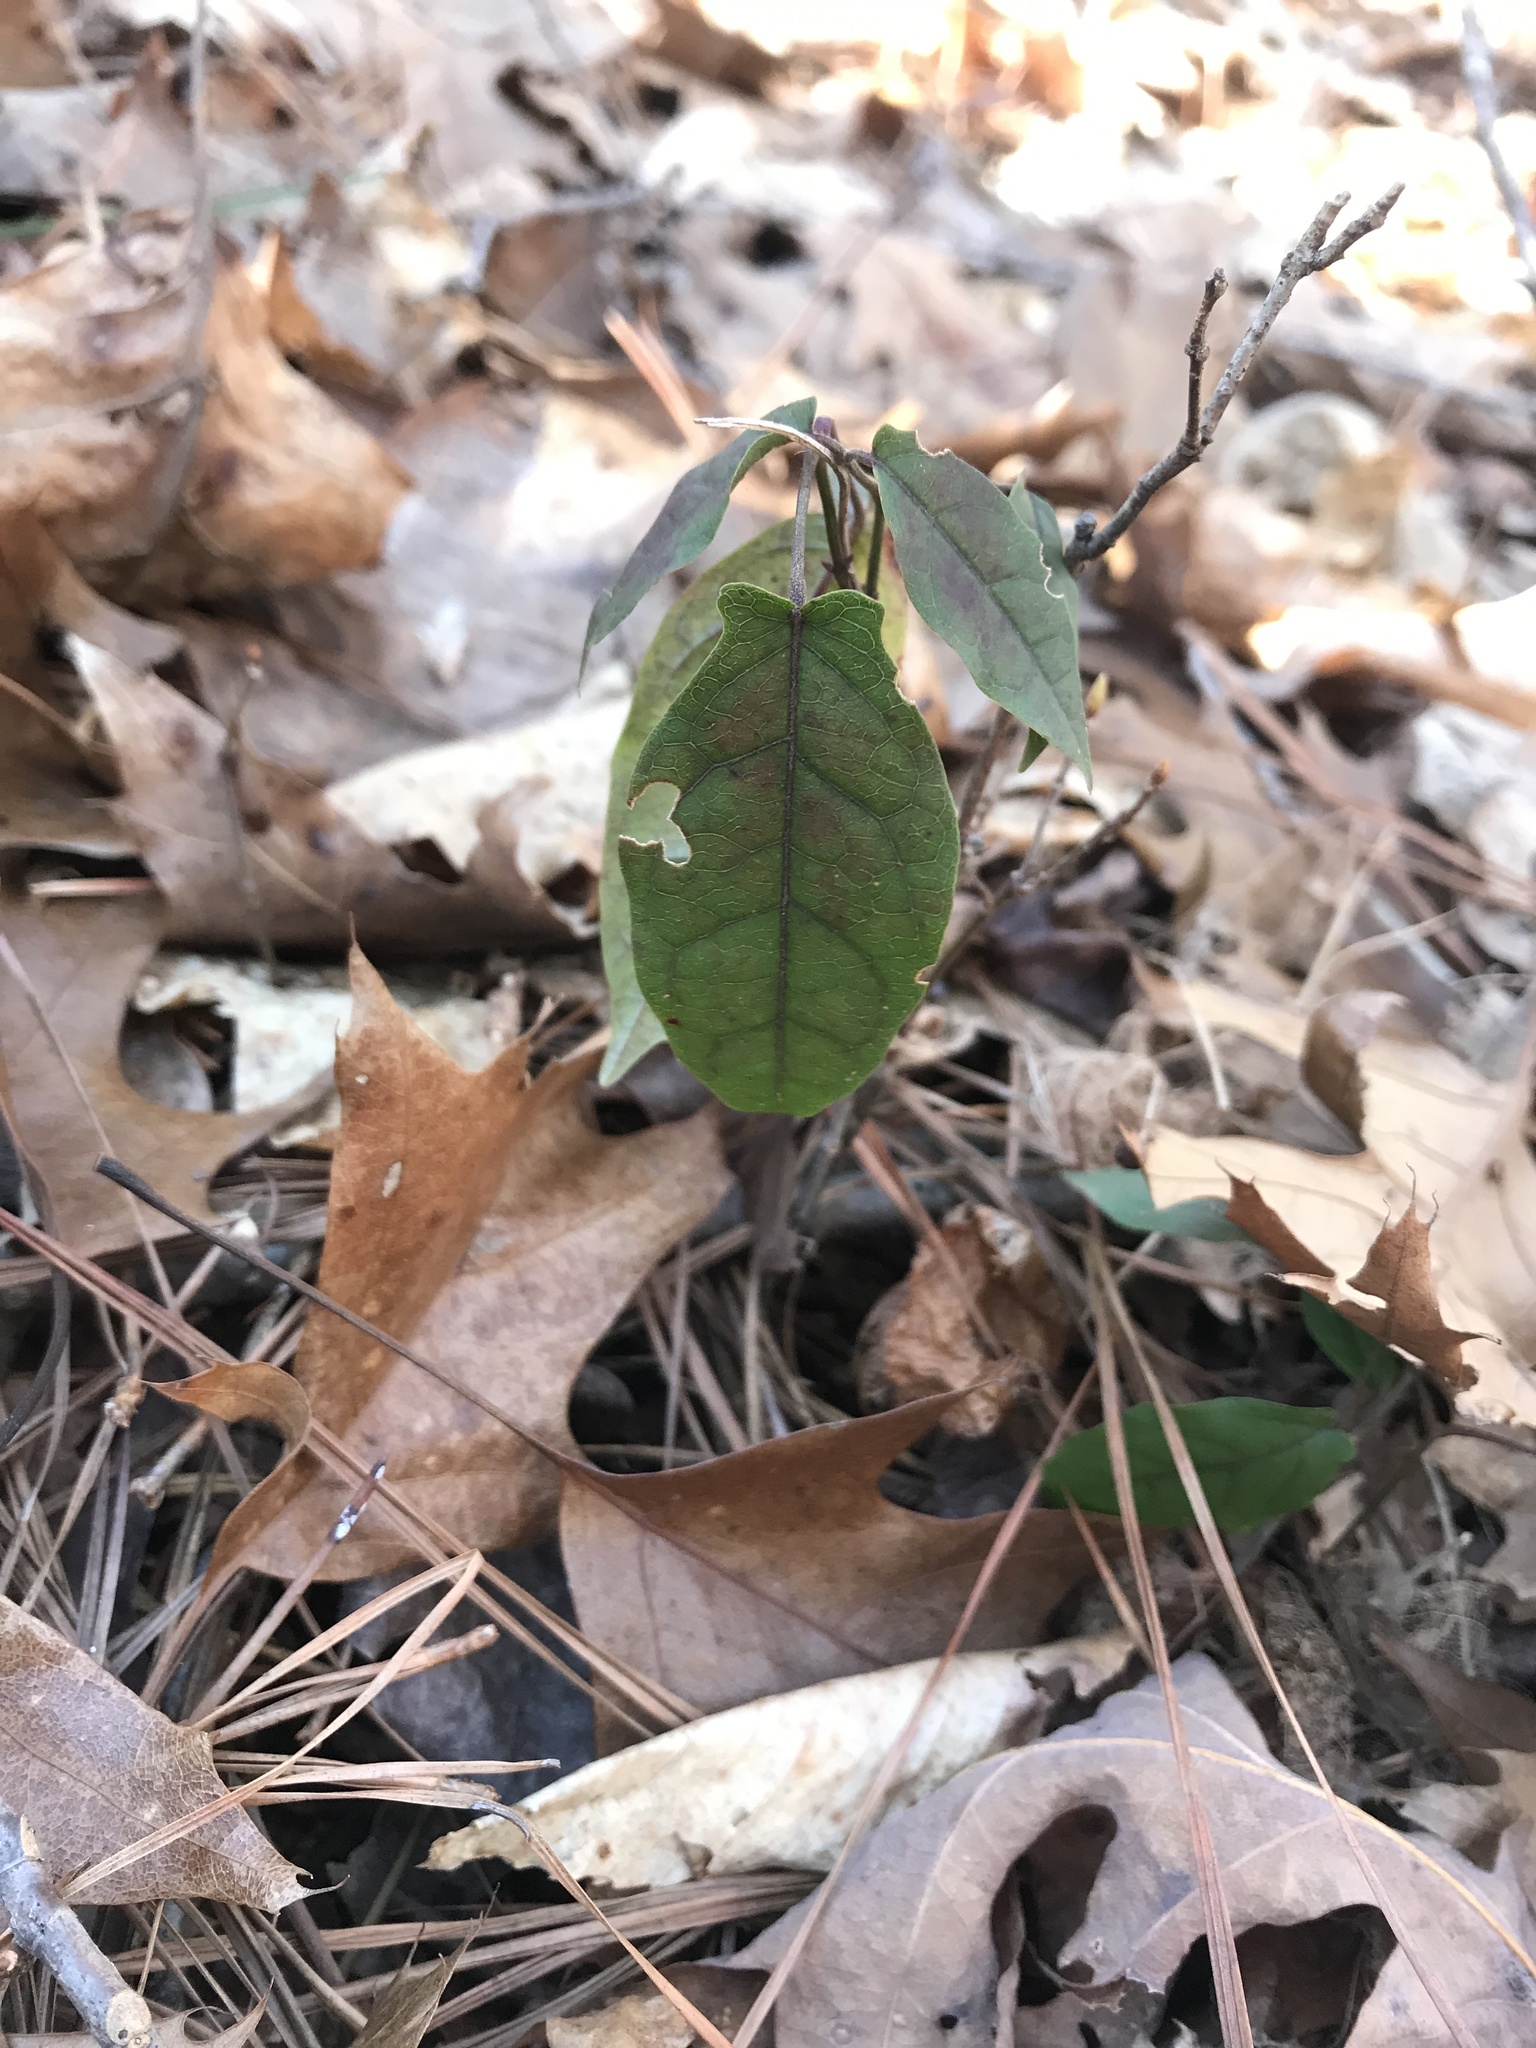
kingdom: Plantae
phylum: Tracheophyta
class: Magnoliopsida
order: Lamiales
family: Bignoniaceae
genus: Bignonia
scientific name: Bignonia capreolata
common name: Crossvine
